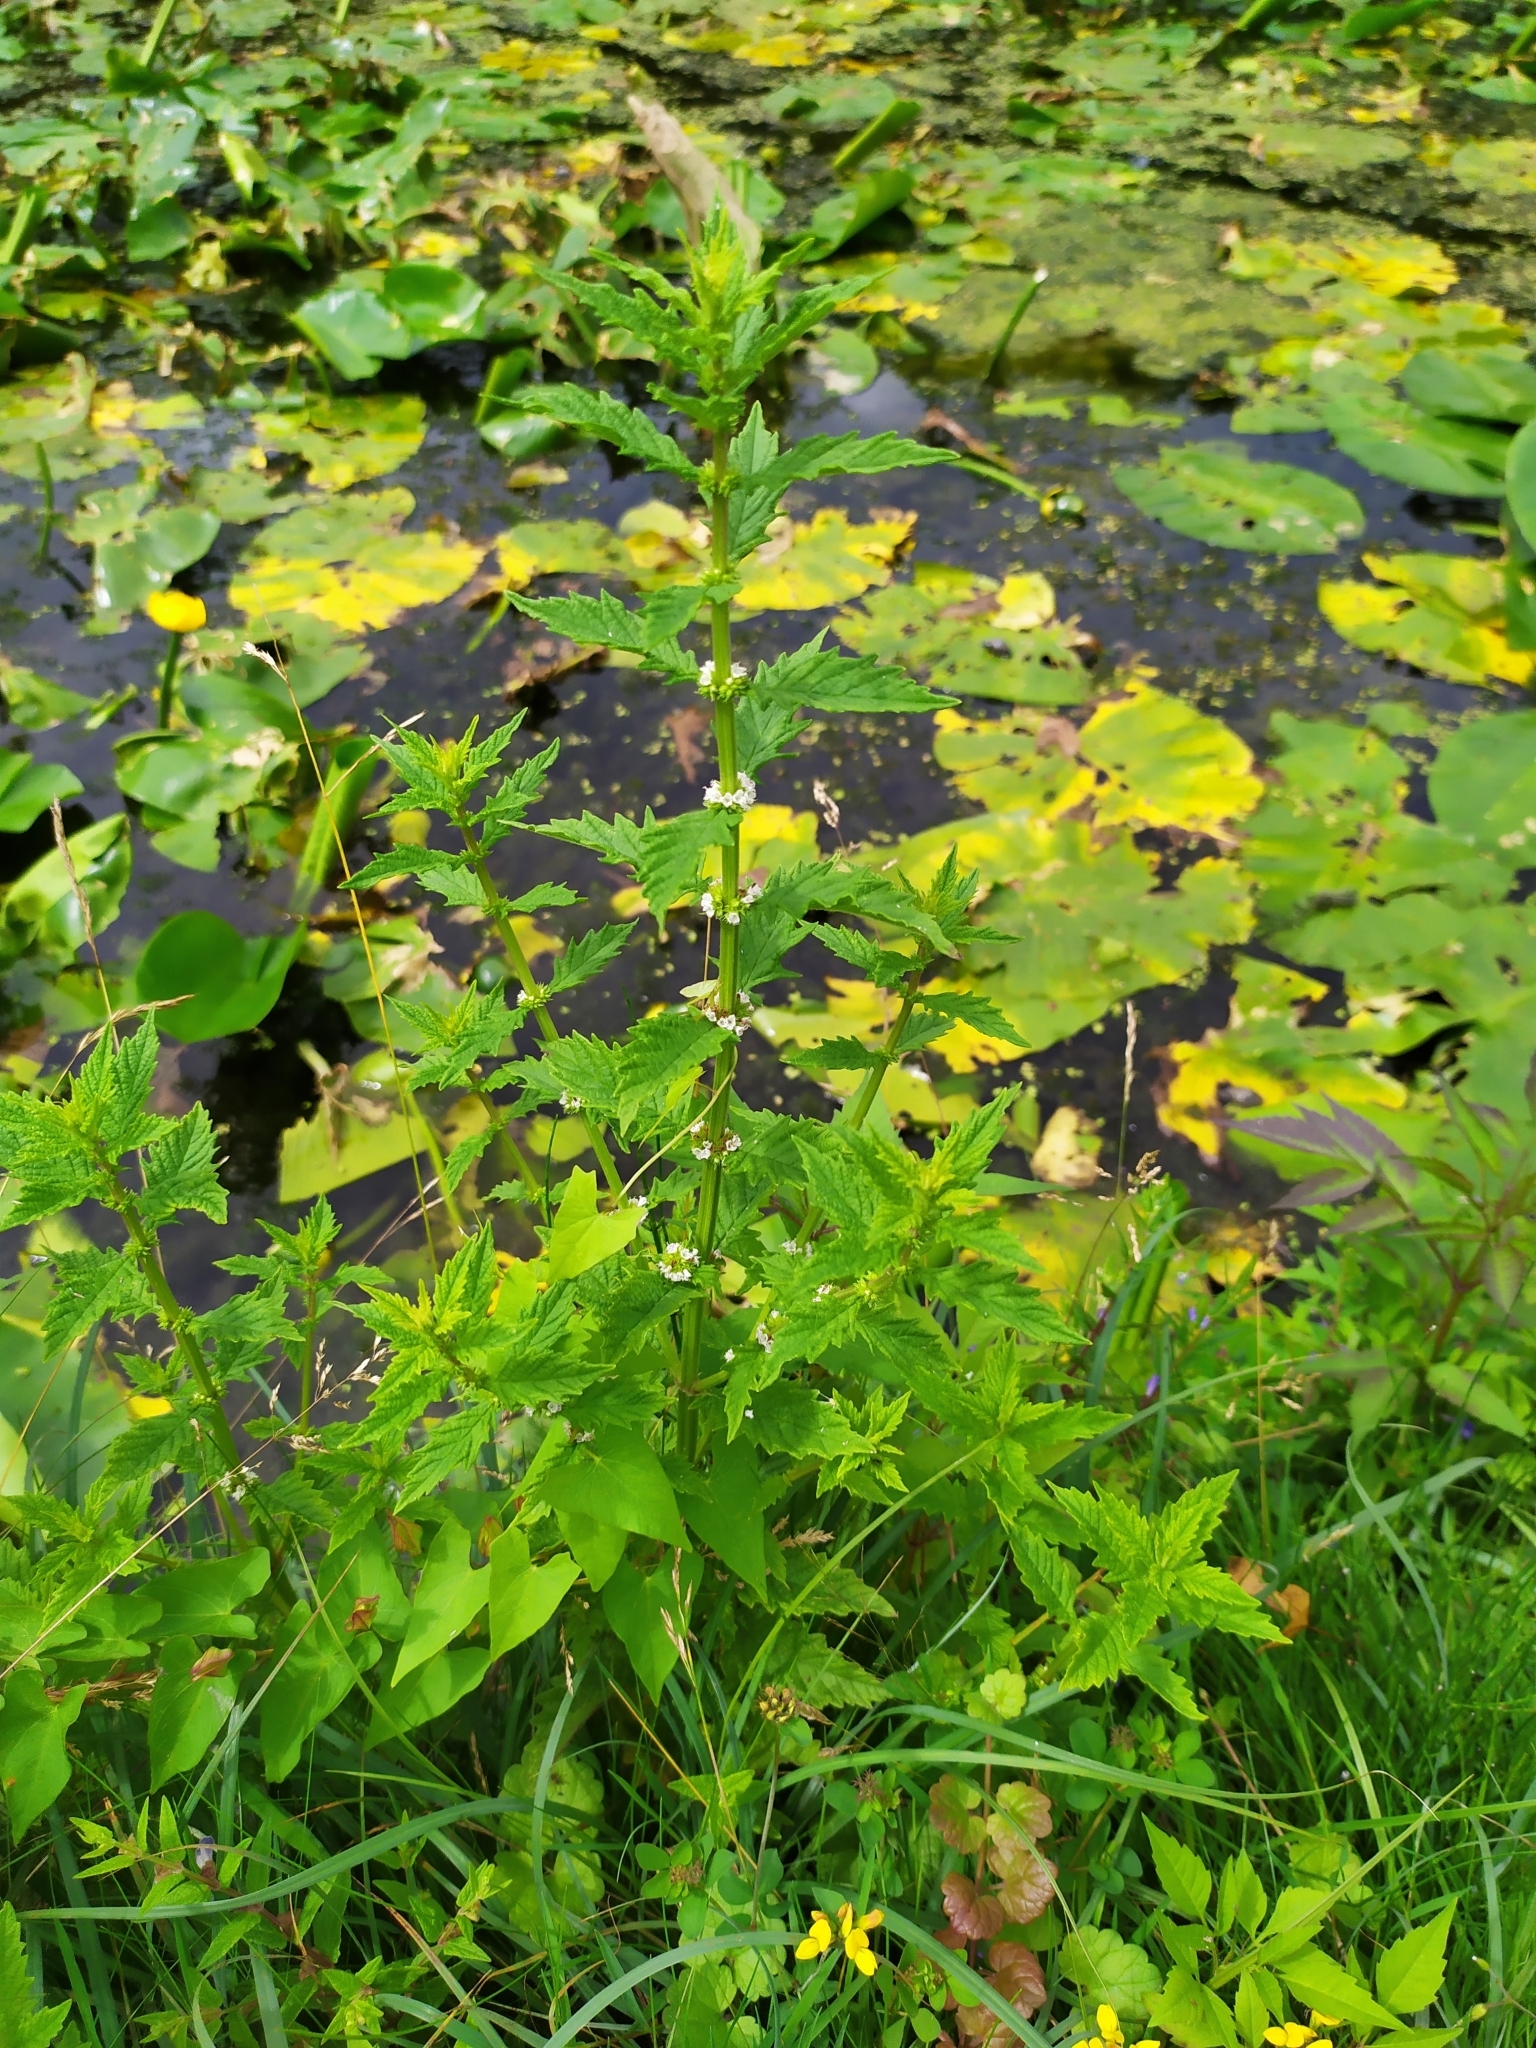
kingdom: Plantae
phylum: Tracheophyta
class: Magnoliopsida
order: Lamiales
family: Lamiaceae
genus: Lycopus
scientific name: Lycopus europaeus
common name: European bugleweed
